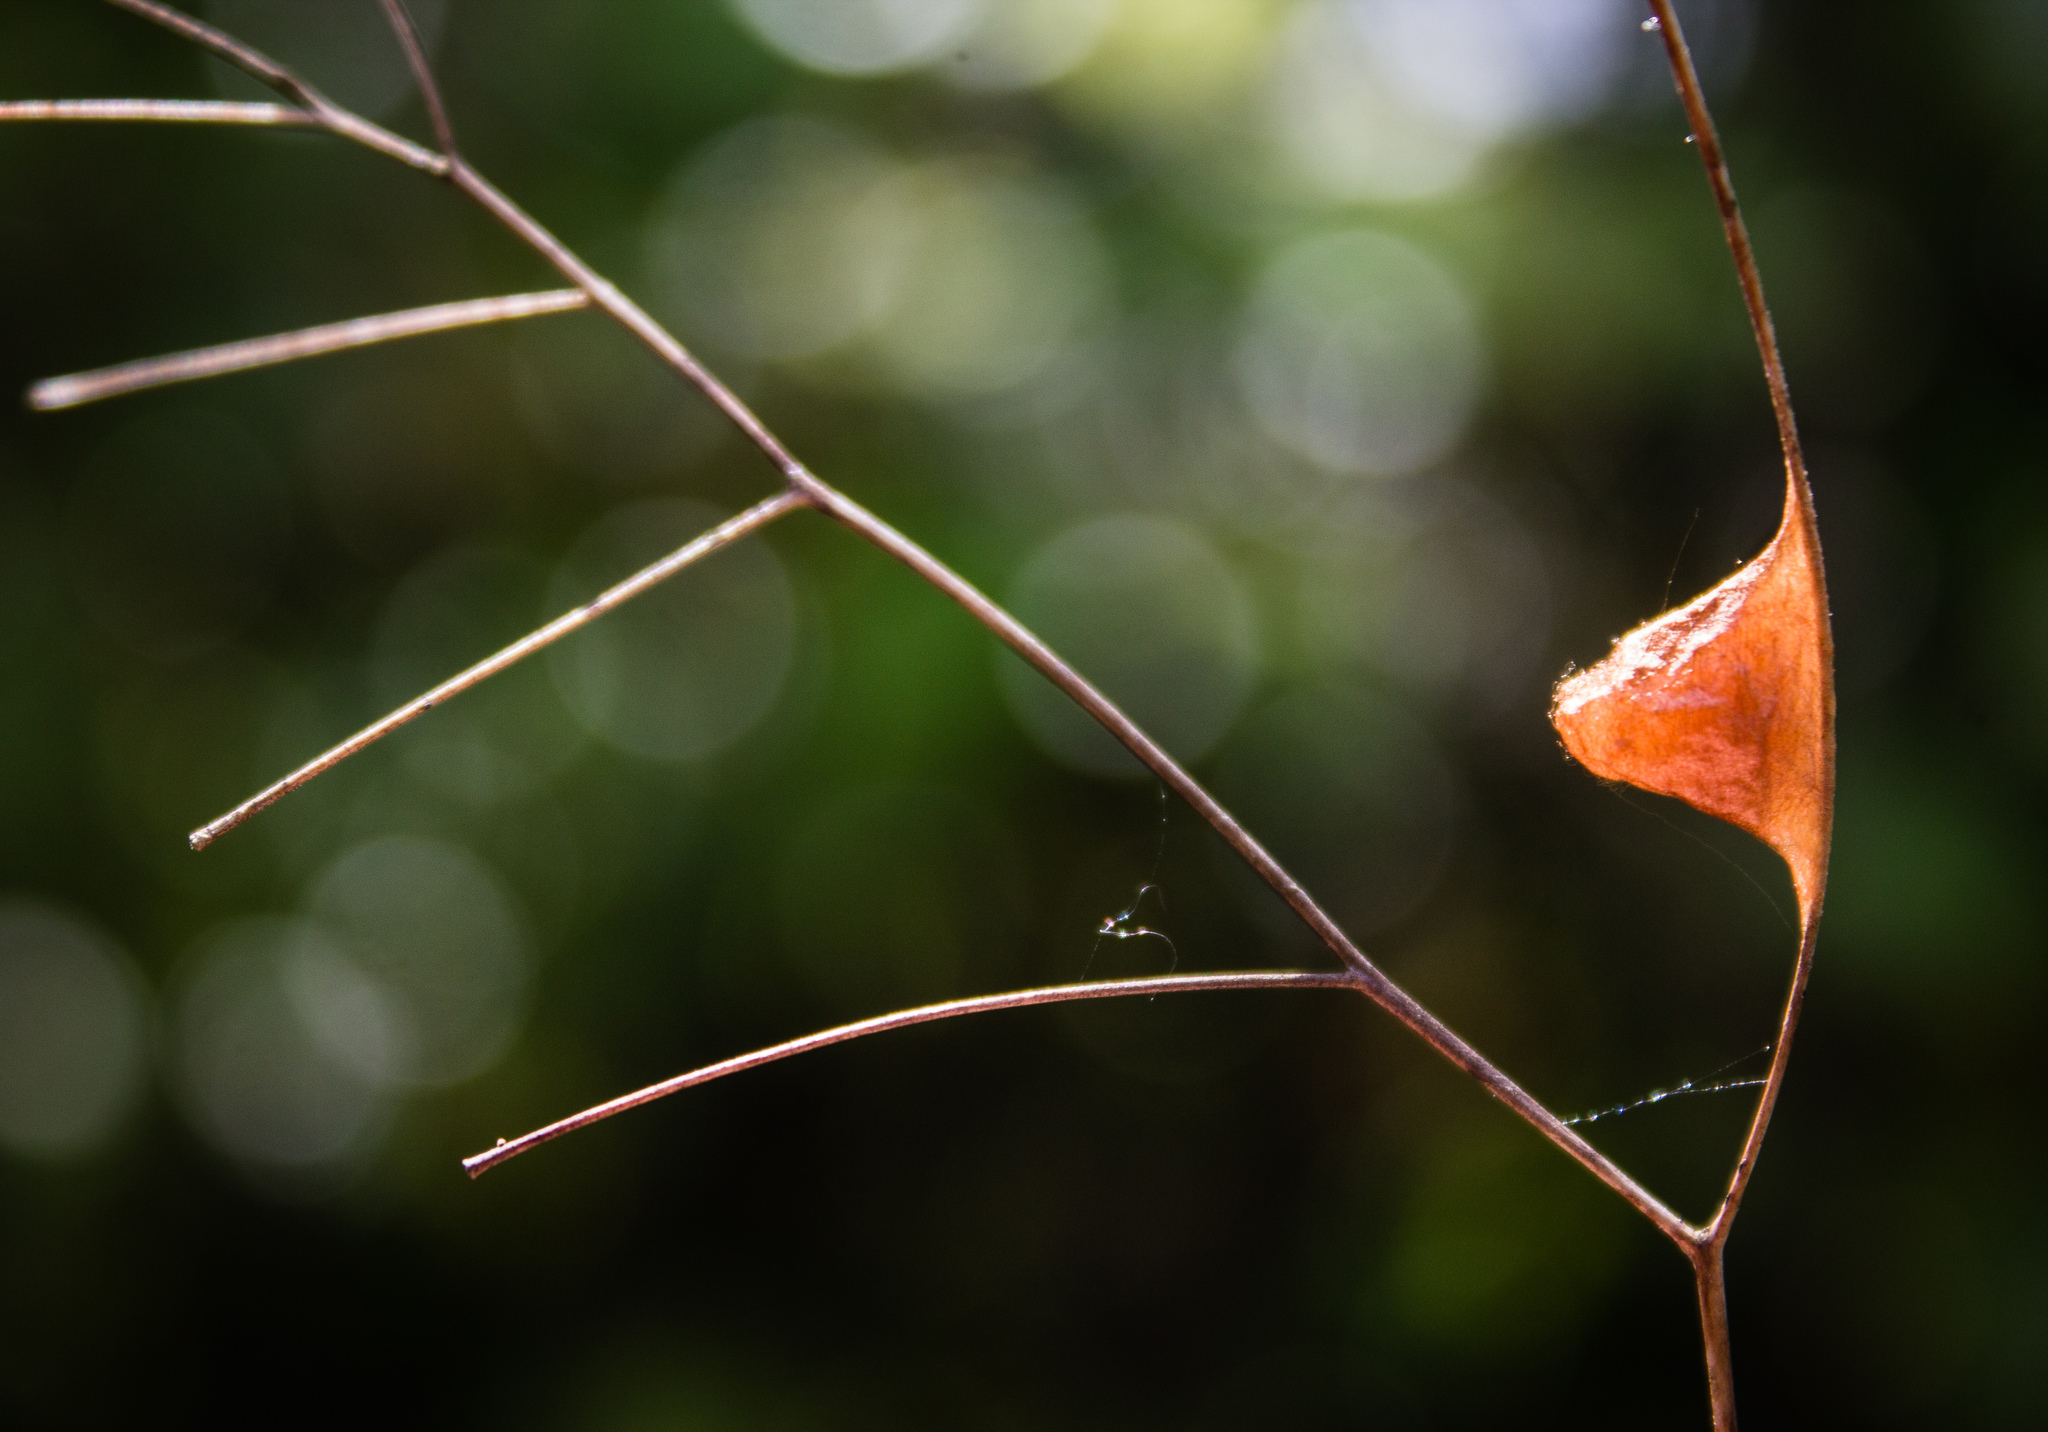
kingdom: Animalia
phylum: Arthropoda
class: Arachnida
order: Araneae
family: Araneidae
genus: Cyclosa
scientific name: Cyclosa trilobata
